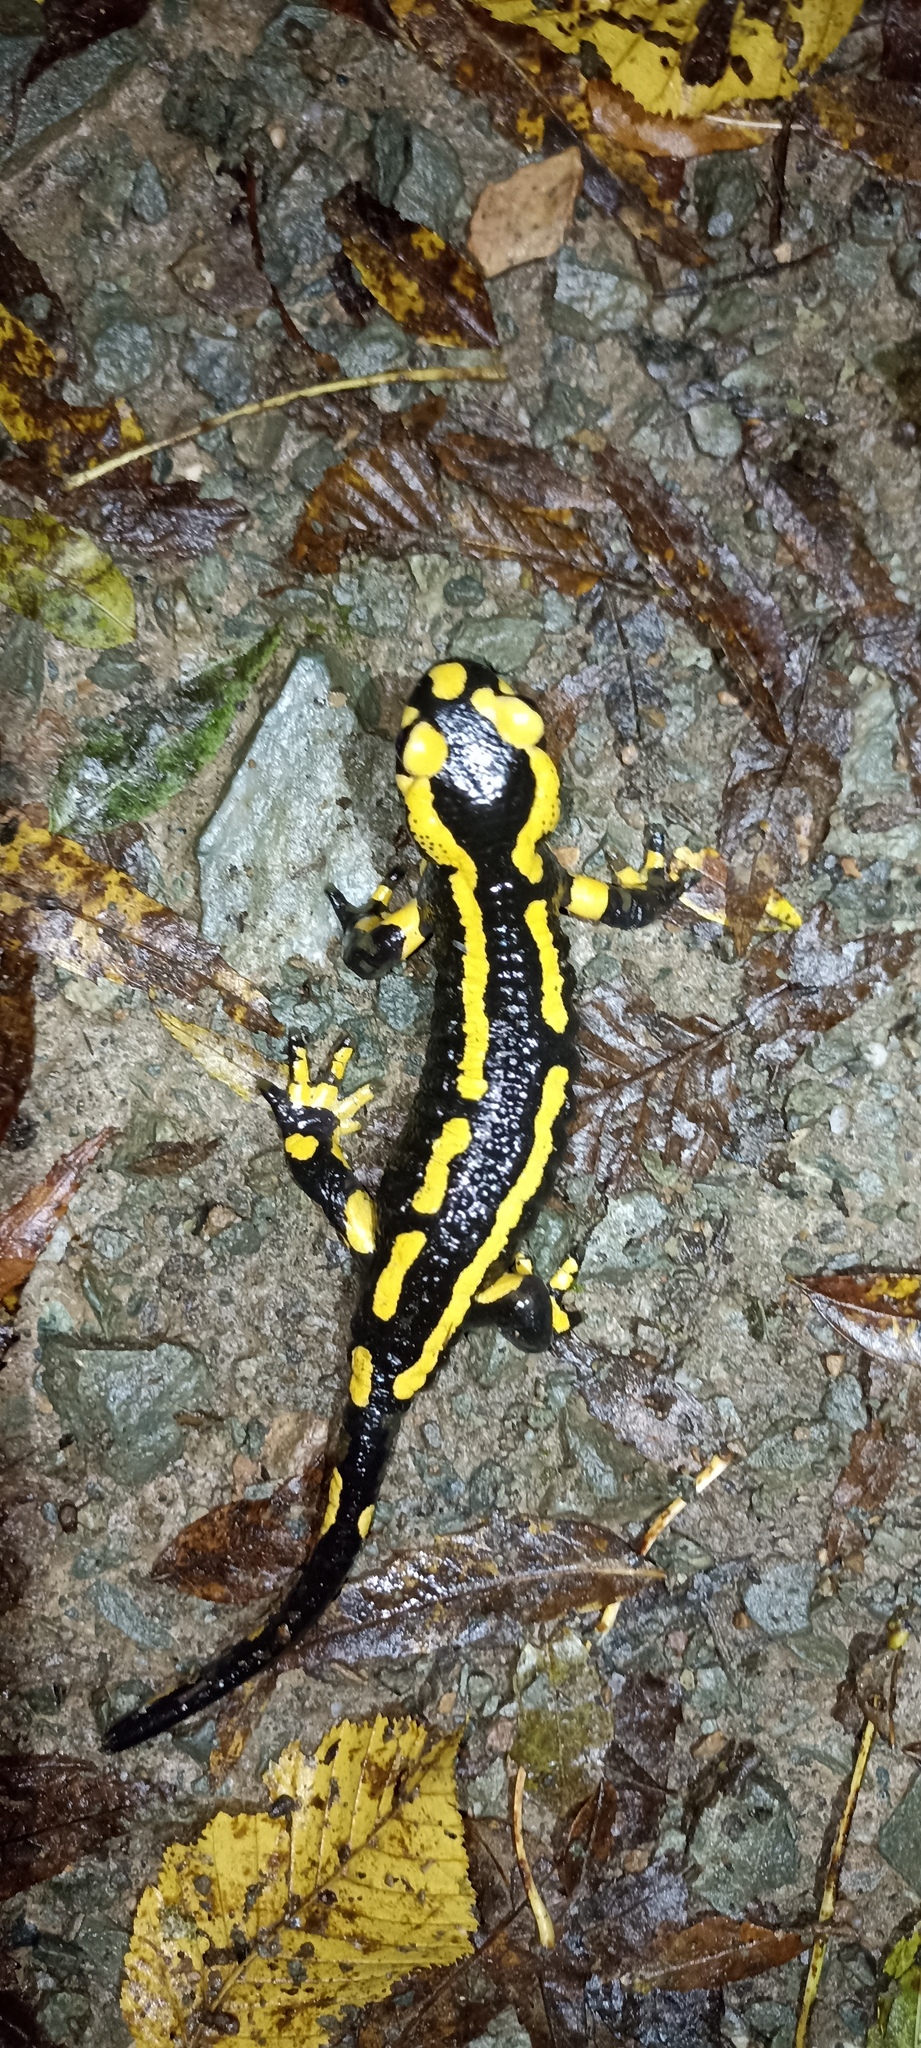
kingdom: Animalia
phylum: Chordata
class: Amphibia
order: Caudata
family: Salamandridae
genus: Salamandra
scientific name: Salamandra salamandra
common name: Fire salamander
